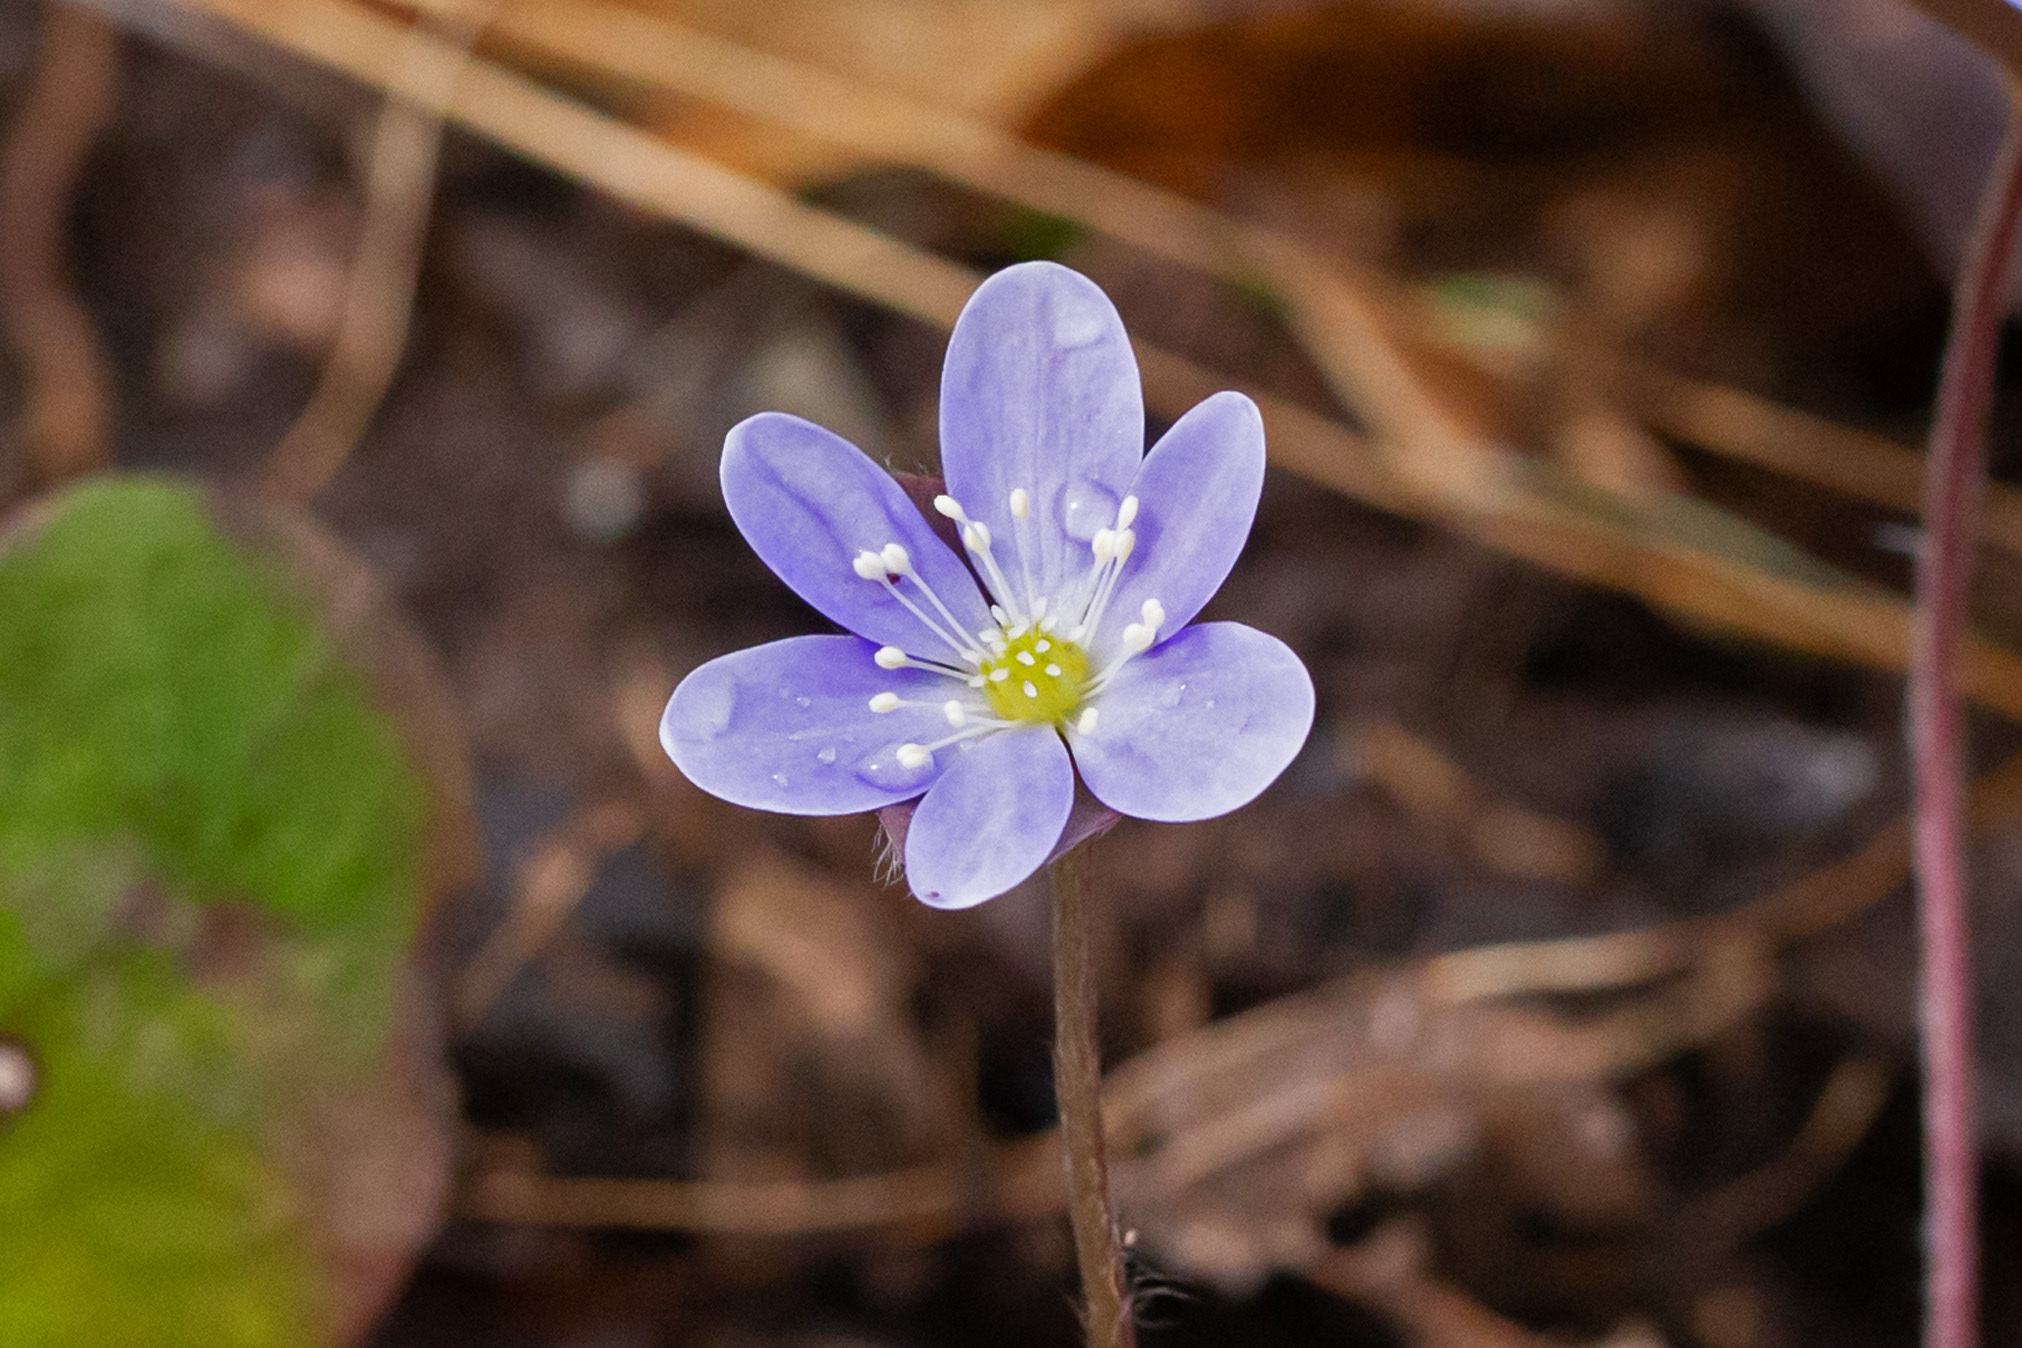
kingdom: Plantae
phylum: Tracheophyta
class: Magnoliopsida
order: Ranunculales
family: Ranunculaceae
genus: Hepatica
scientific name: Hepatica americana
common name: American hepatica
